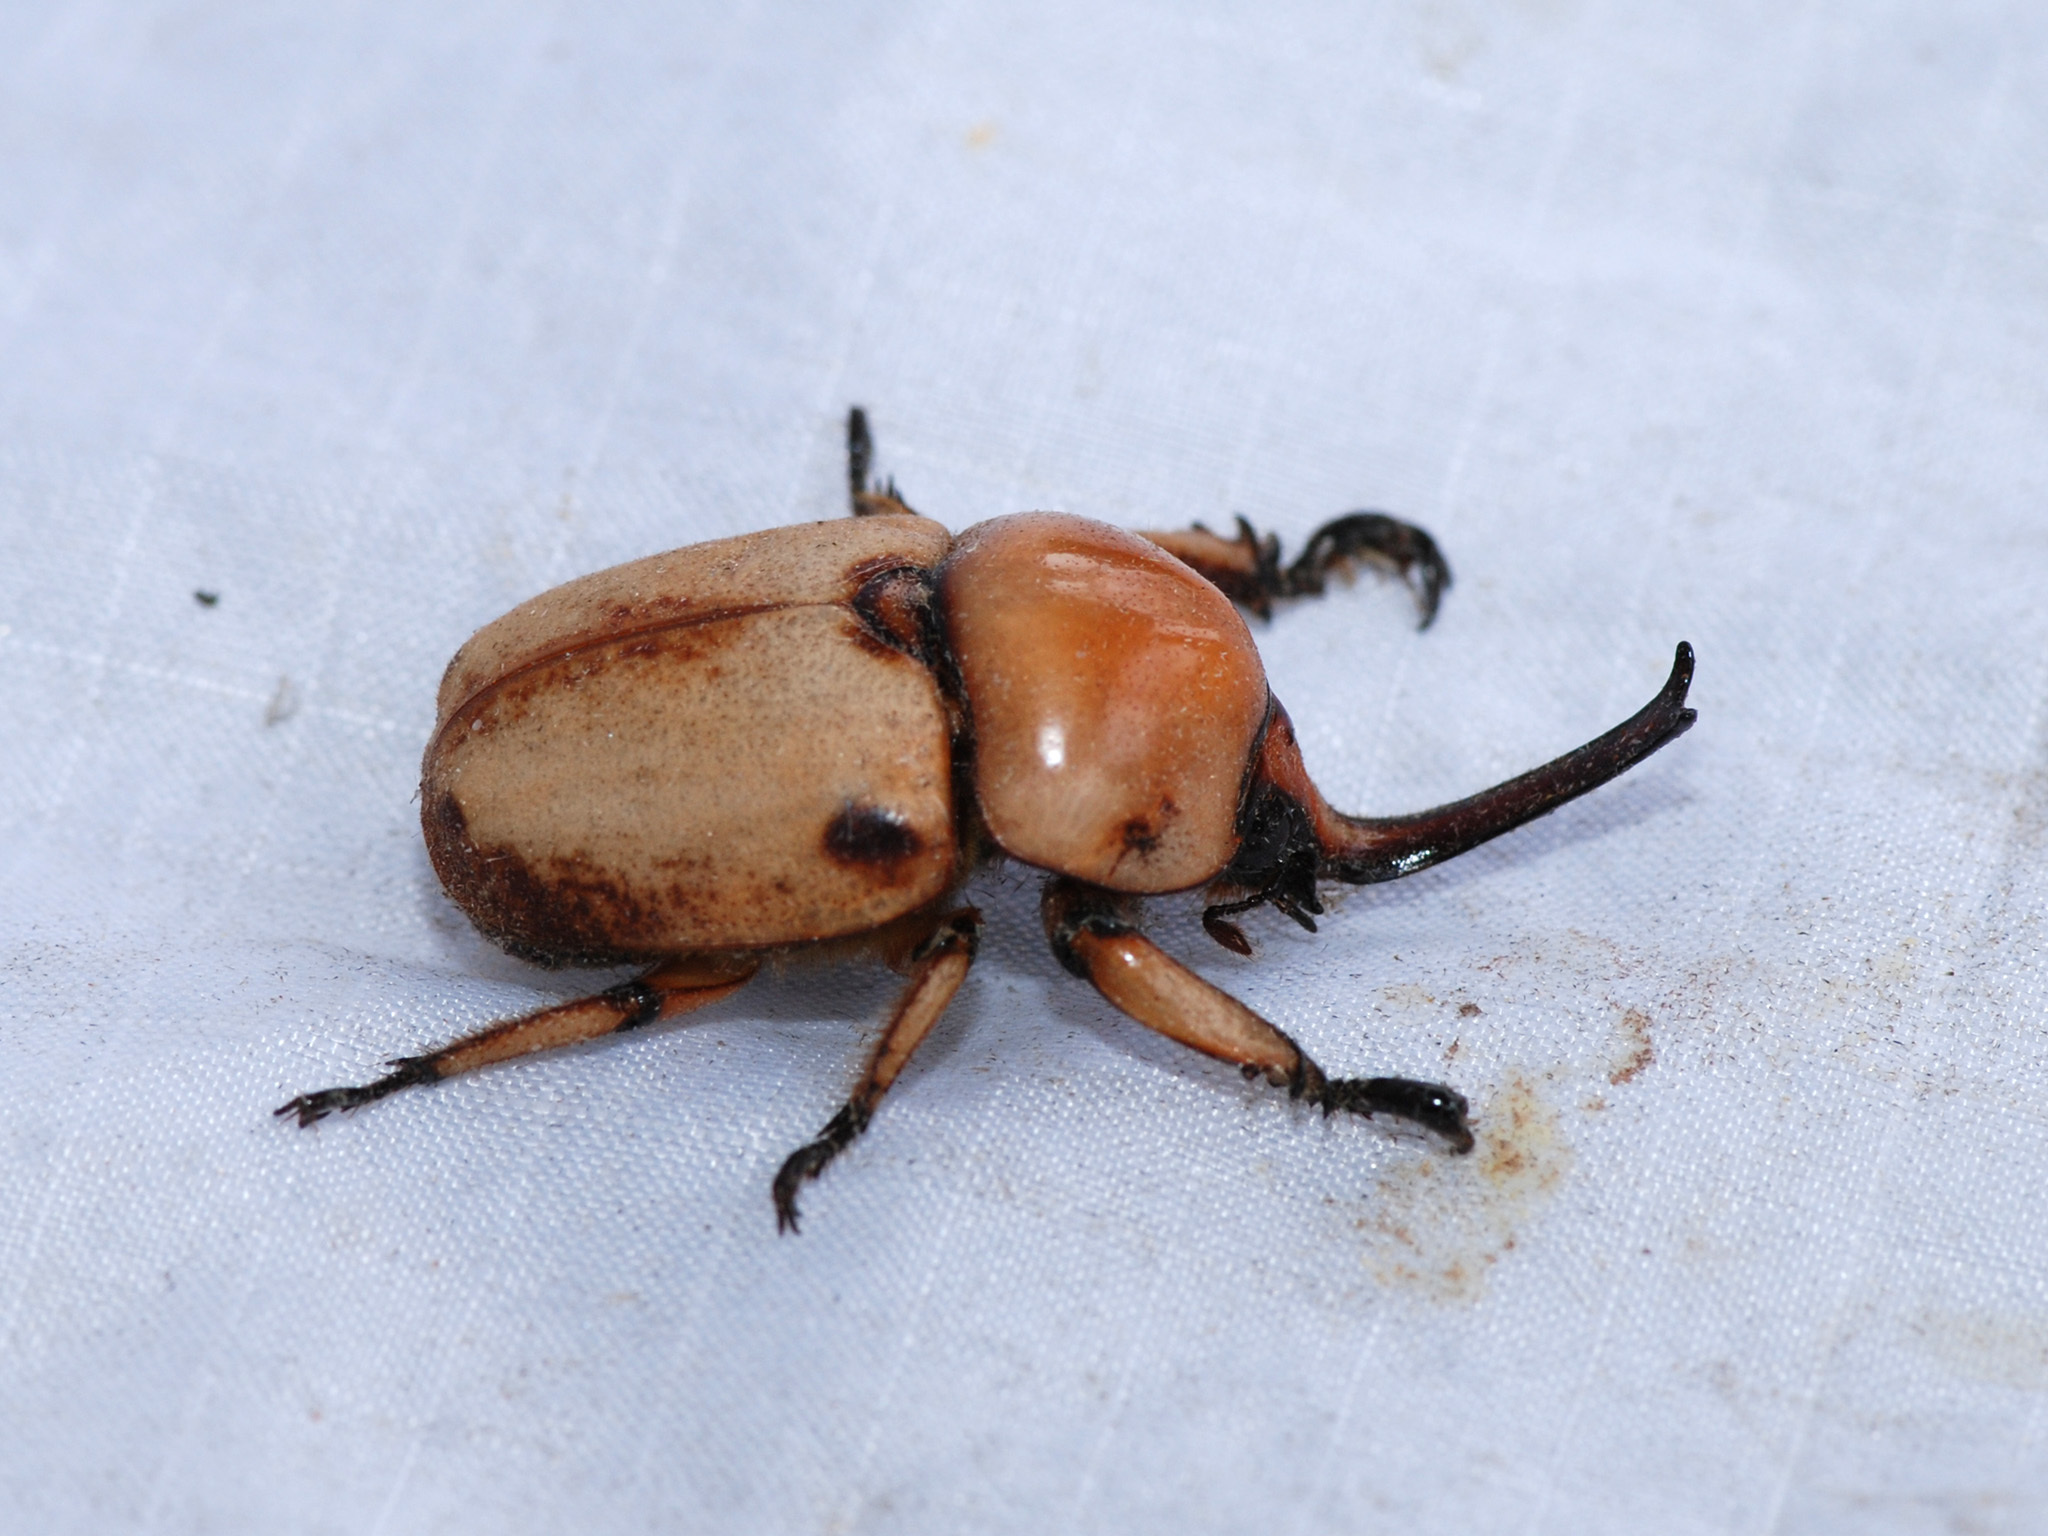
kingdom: Animalia
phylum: Arthropoda
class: Insecta
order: Coleoptera
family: Scarabaeidae
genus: Ceroplophana
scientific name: Ceroplophana malaysiana
